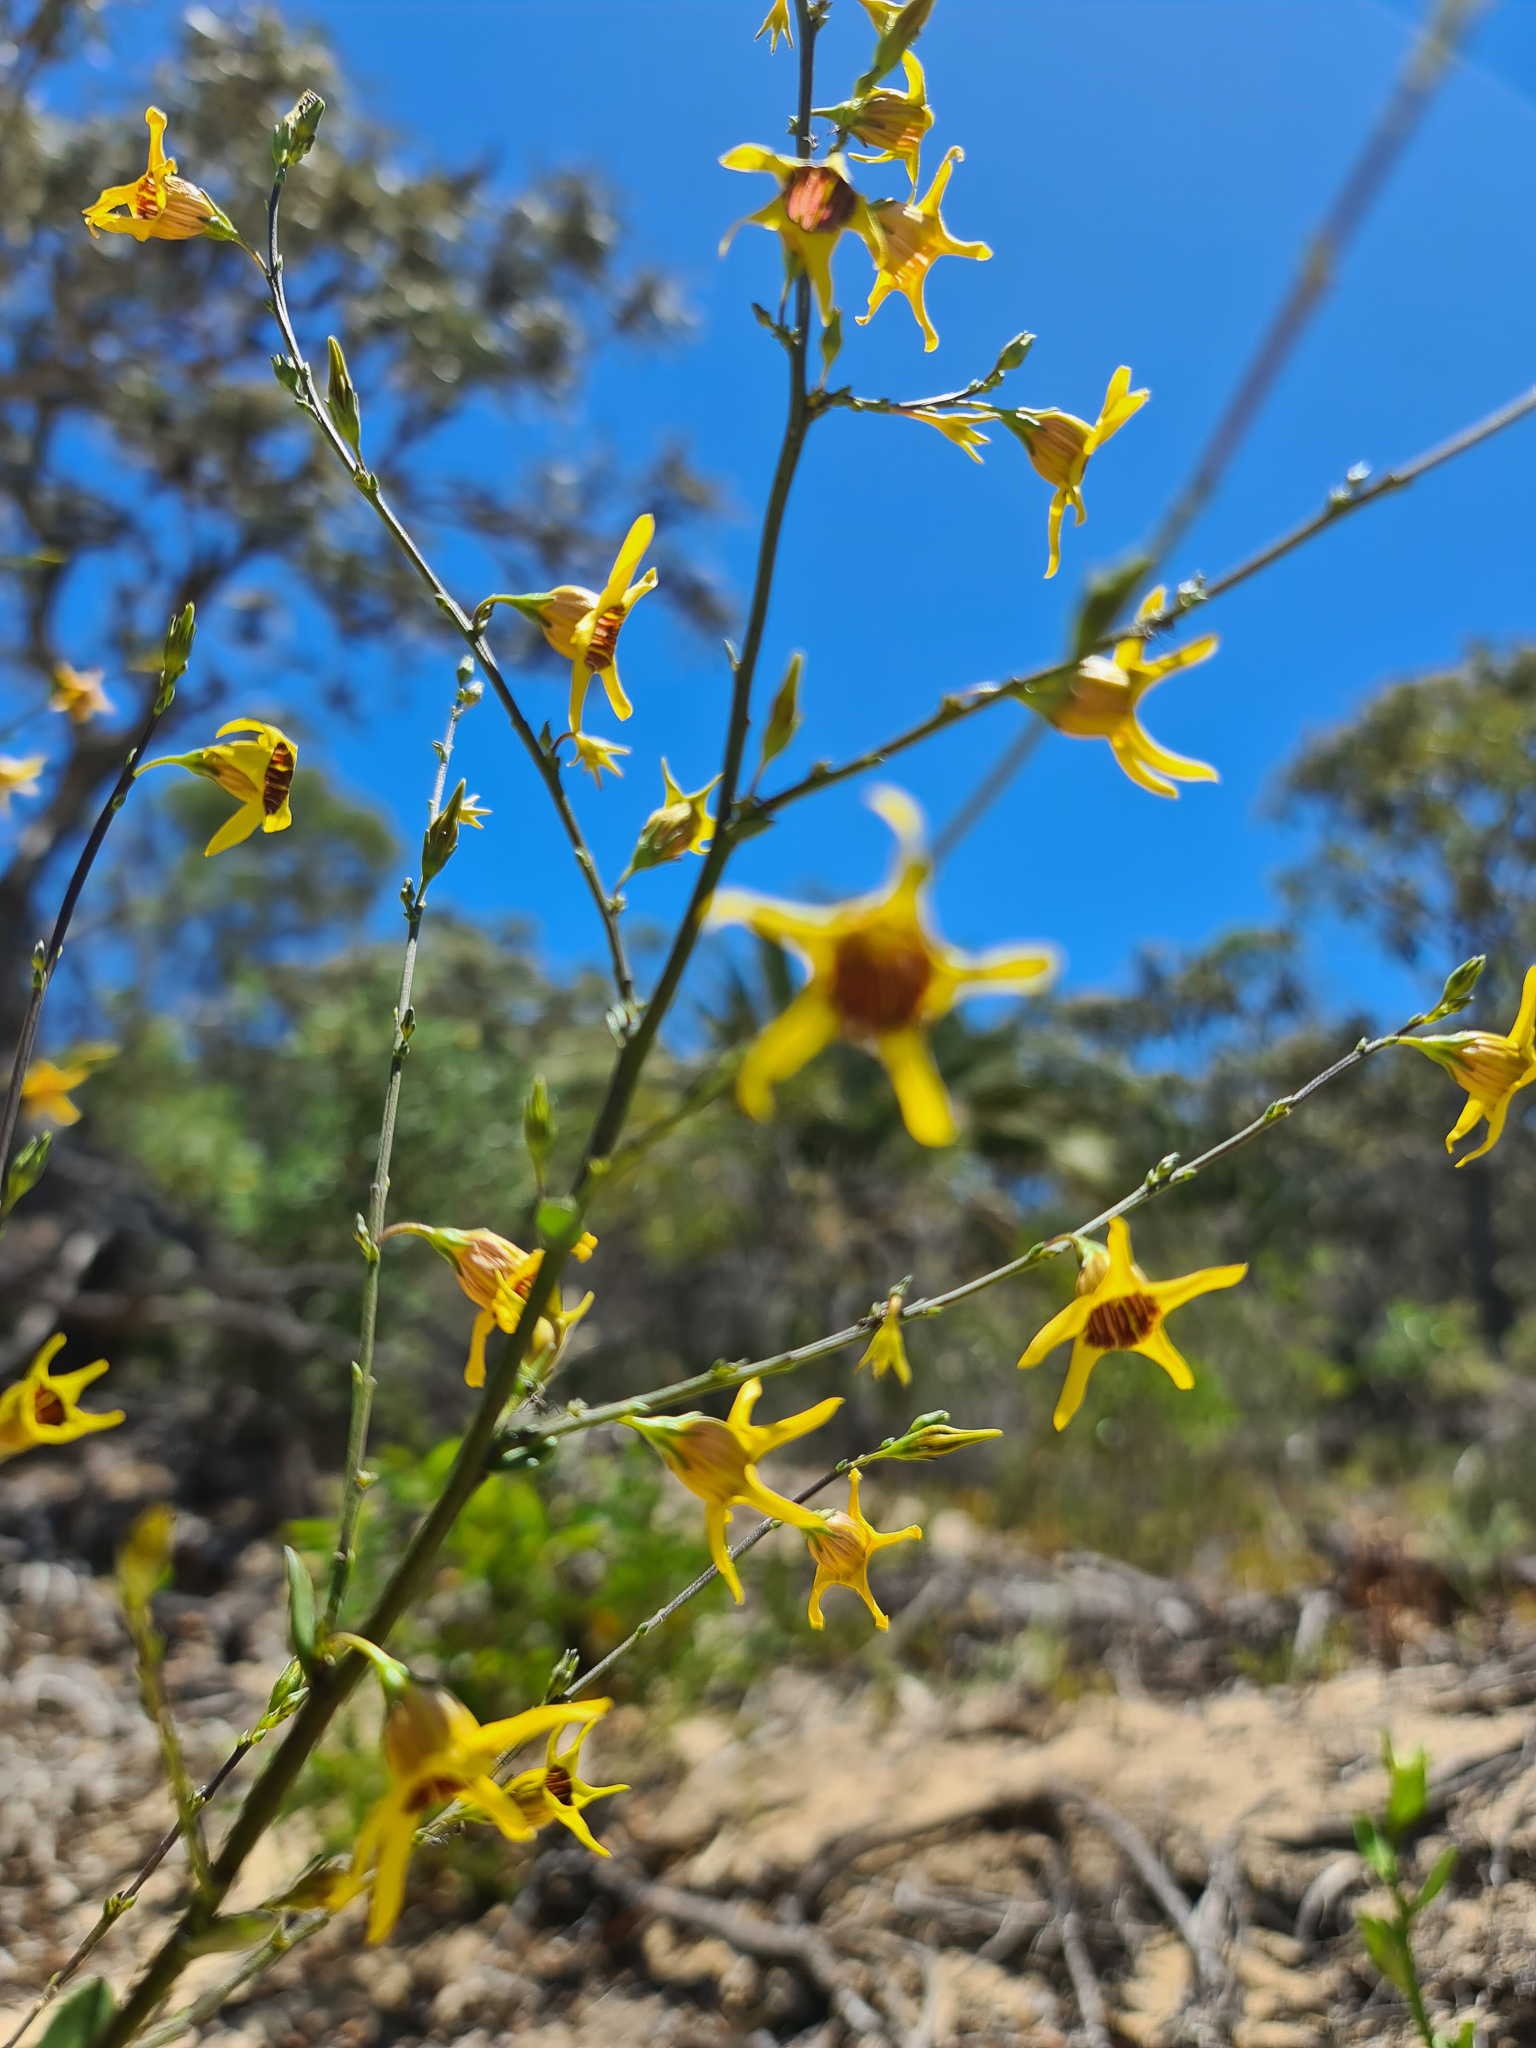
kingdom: Plantae
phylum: Tracheophyta
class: Magnoliopsida
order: Solanales
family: Solanaceae
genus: Anthocercis
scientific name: Anthocercis ilicifolia
